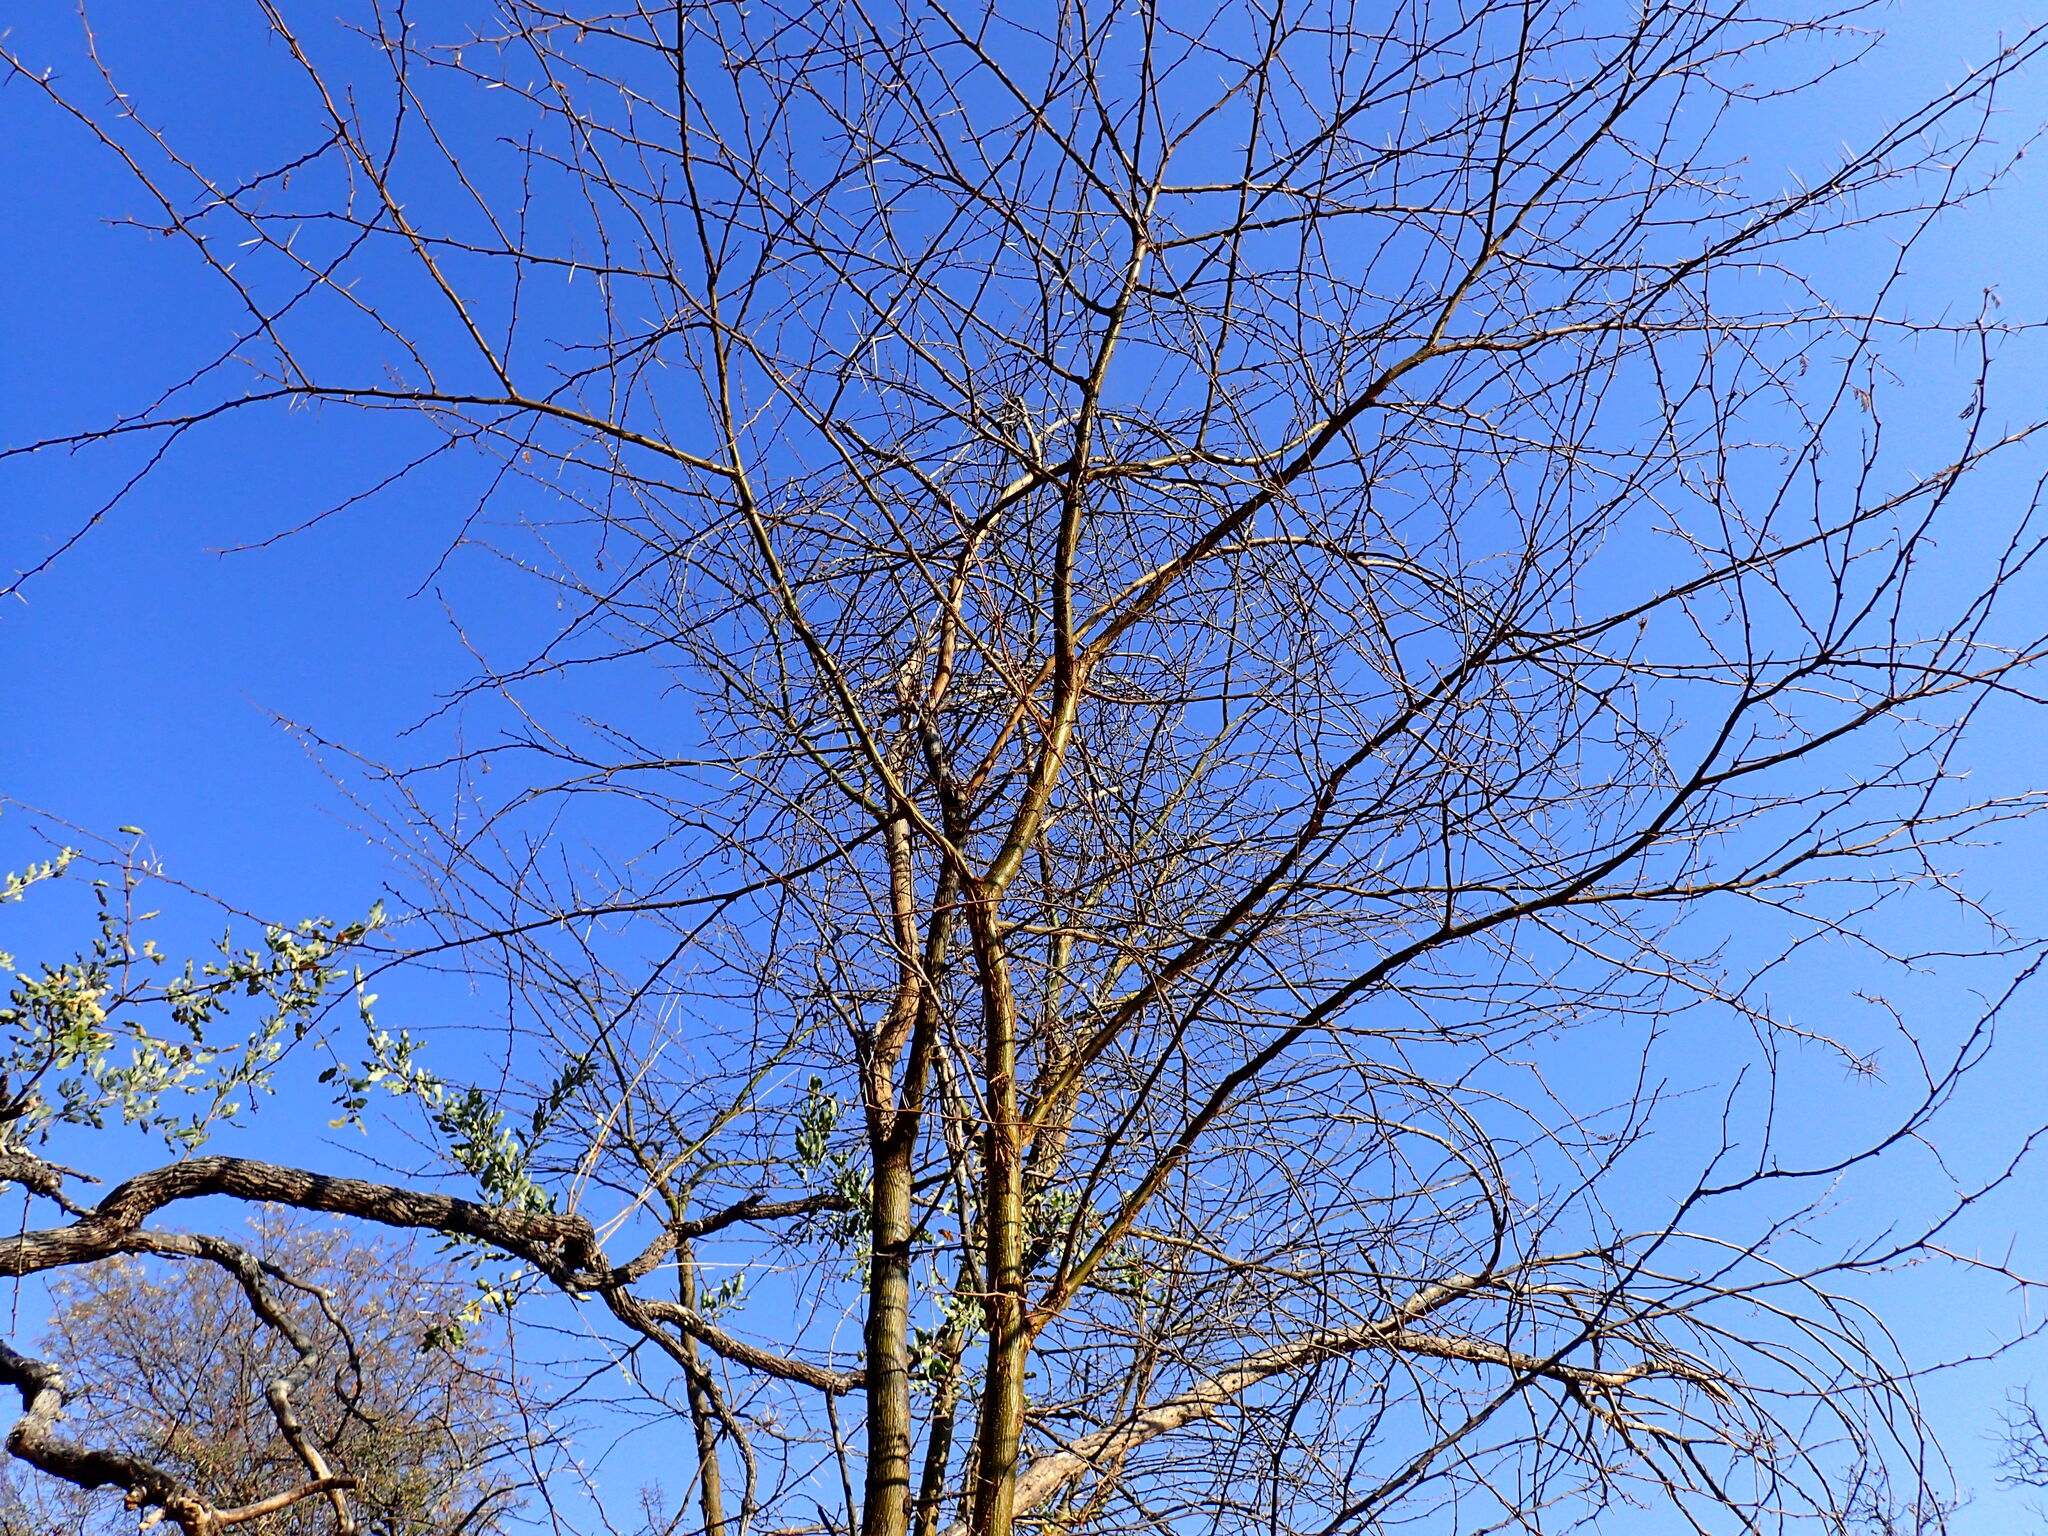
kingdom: Plantae
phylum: Tracheophyta
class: Magnoliopsida
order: Fabales
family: Fabaceae
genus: Vachellia
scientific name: Vachellia kirkii
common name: Flood-plain acacia
